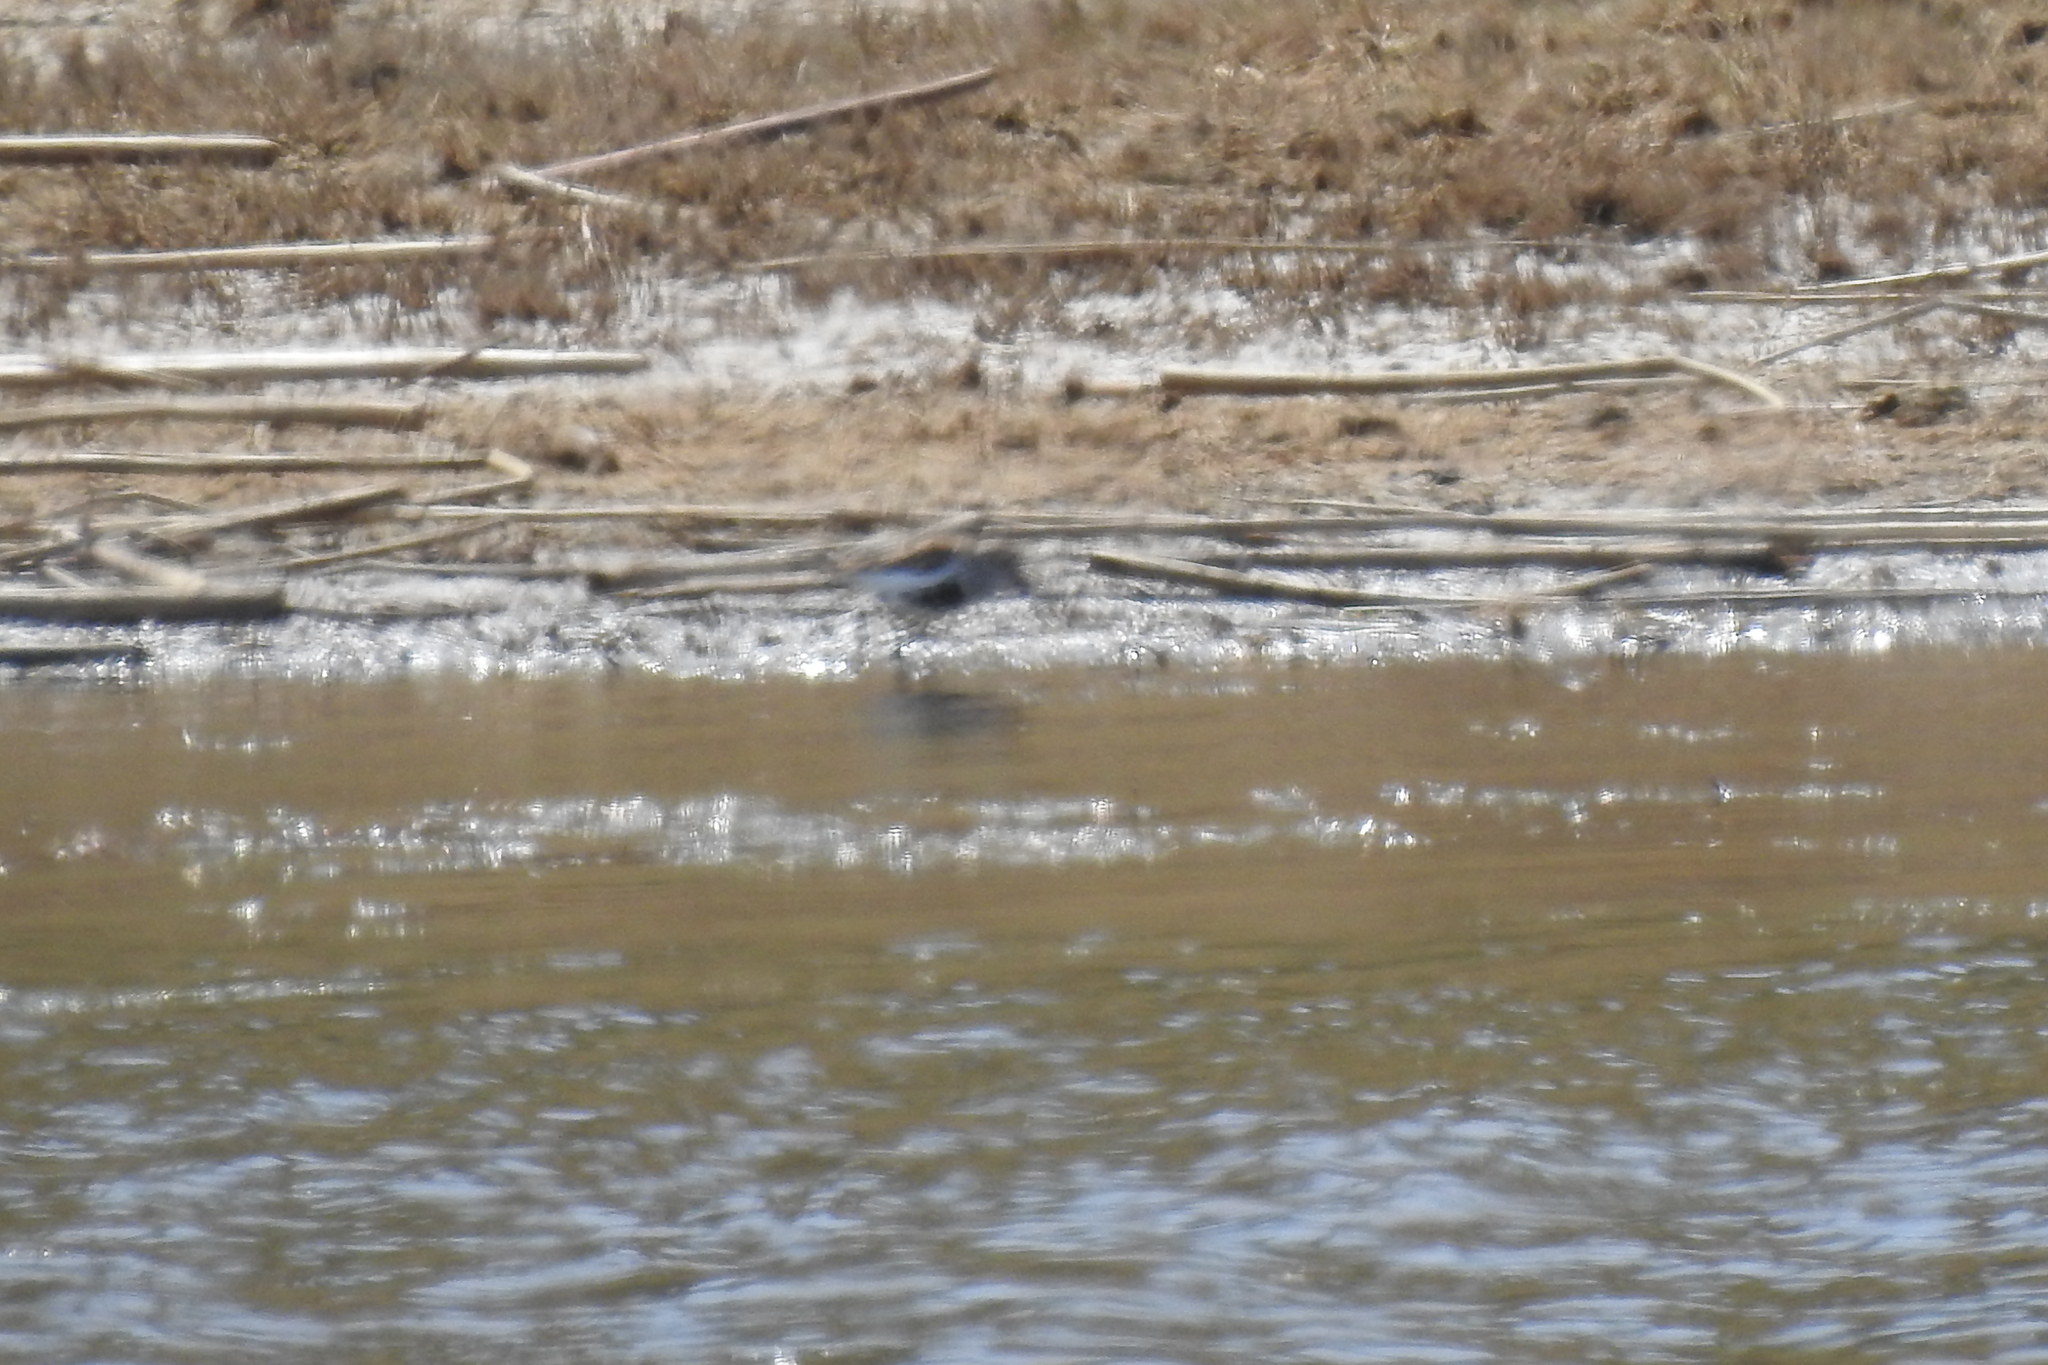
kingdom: Animalia
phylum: Chordata
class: Aves
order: Charadriiformes
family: Scolopacidae
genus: Calidris
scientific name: Calidris alpina
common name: Dunlin
